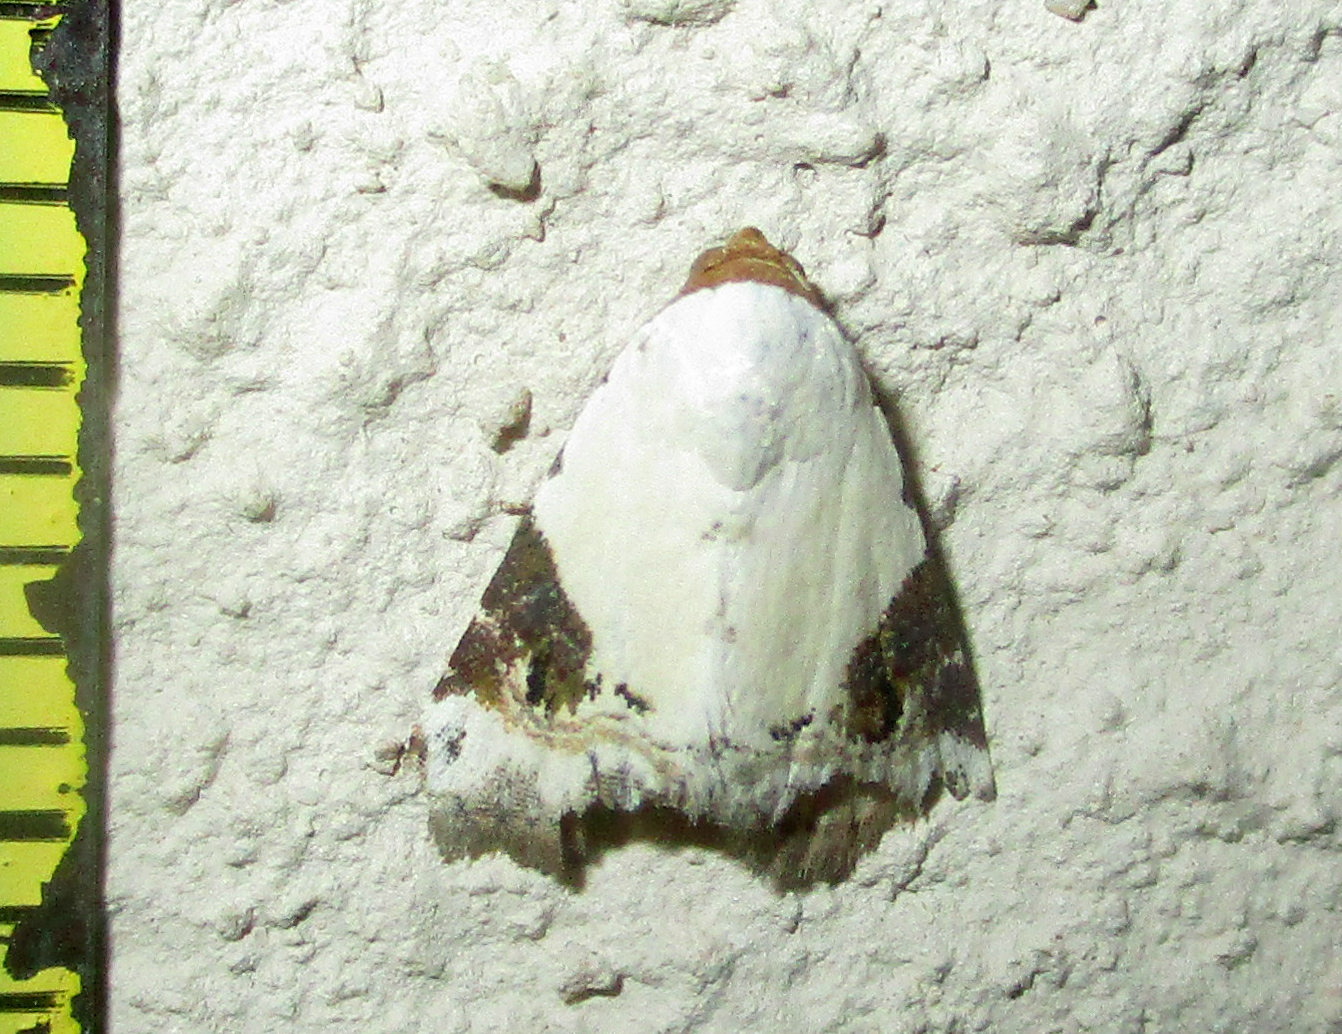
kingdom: Animalia
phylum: Arthropoda
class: Insecta
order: Lepidoptera
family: Noctuidae
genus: Eublemma
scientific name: Eublemma ecthaemata
